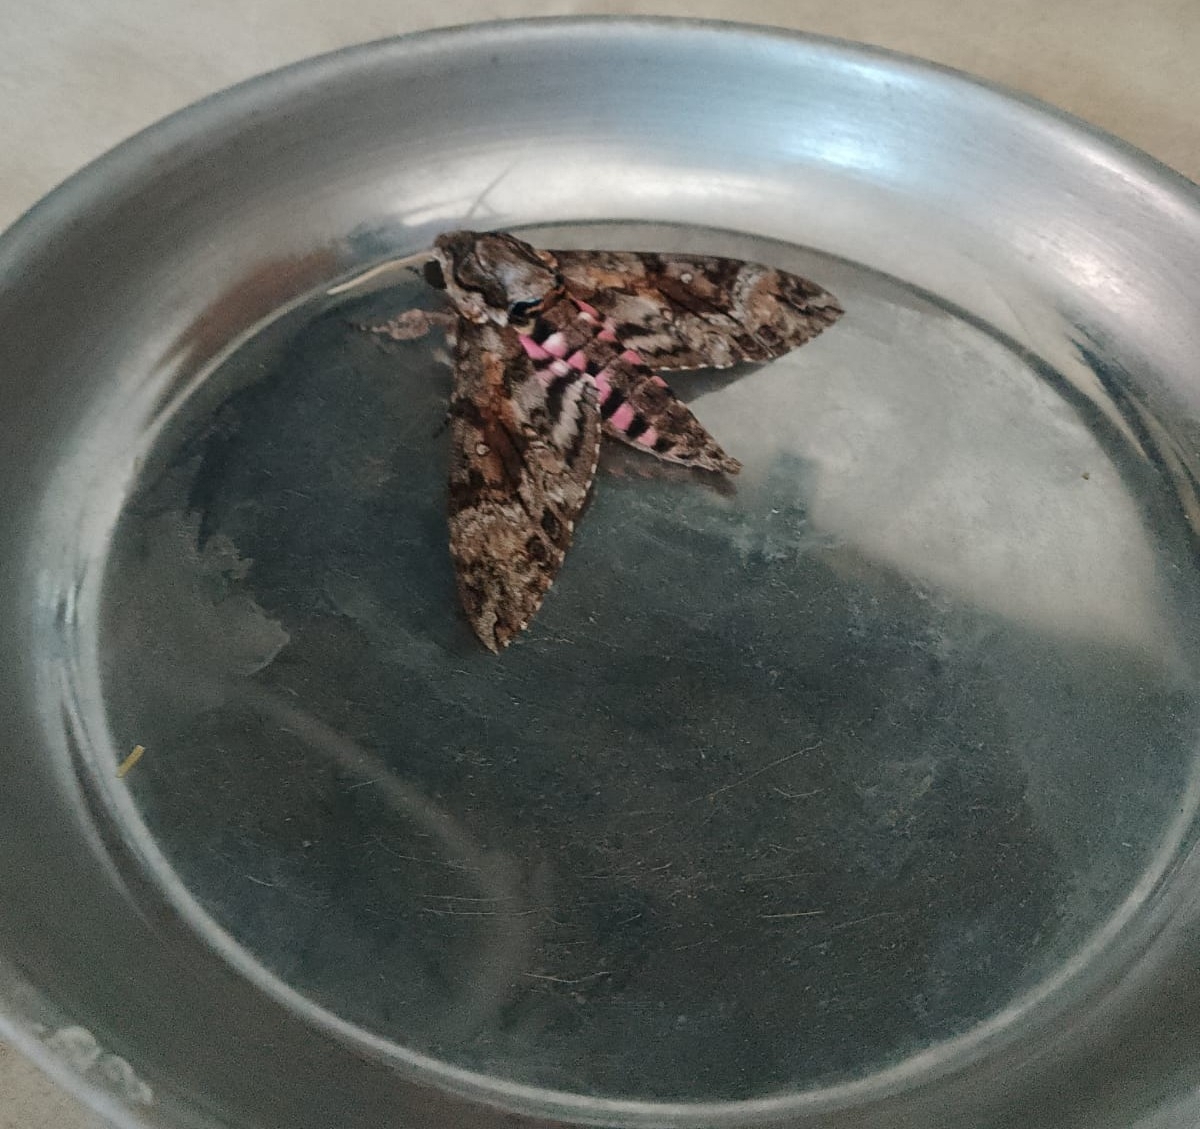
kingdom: Animalia
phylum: Arthropoda
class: Insecta
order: Lepidoptera
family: Sphingidae
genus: Agrius
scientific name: Agrius cingulata
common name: Pink-spotted hawkmoth
